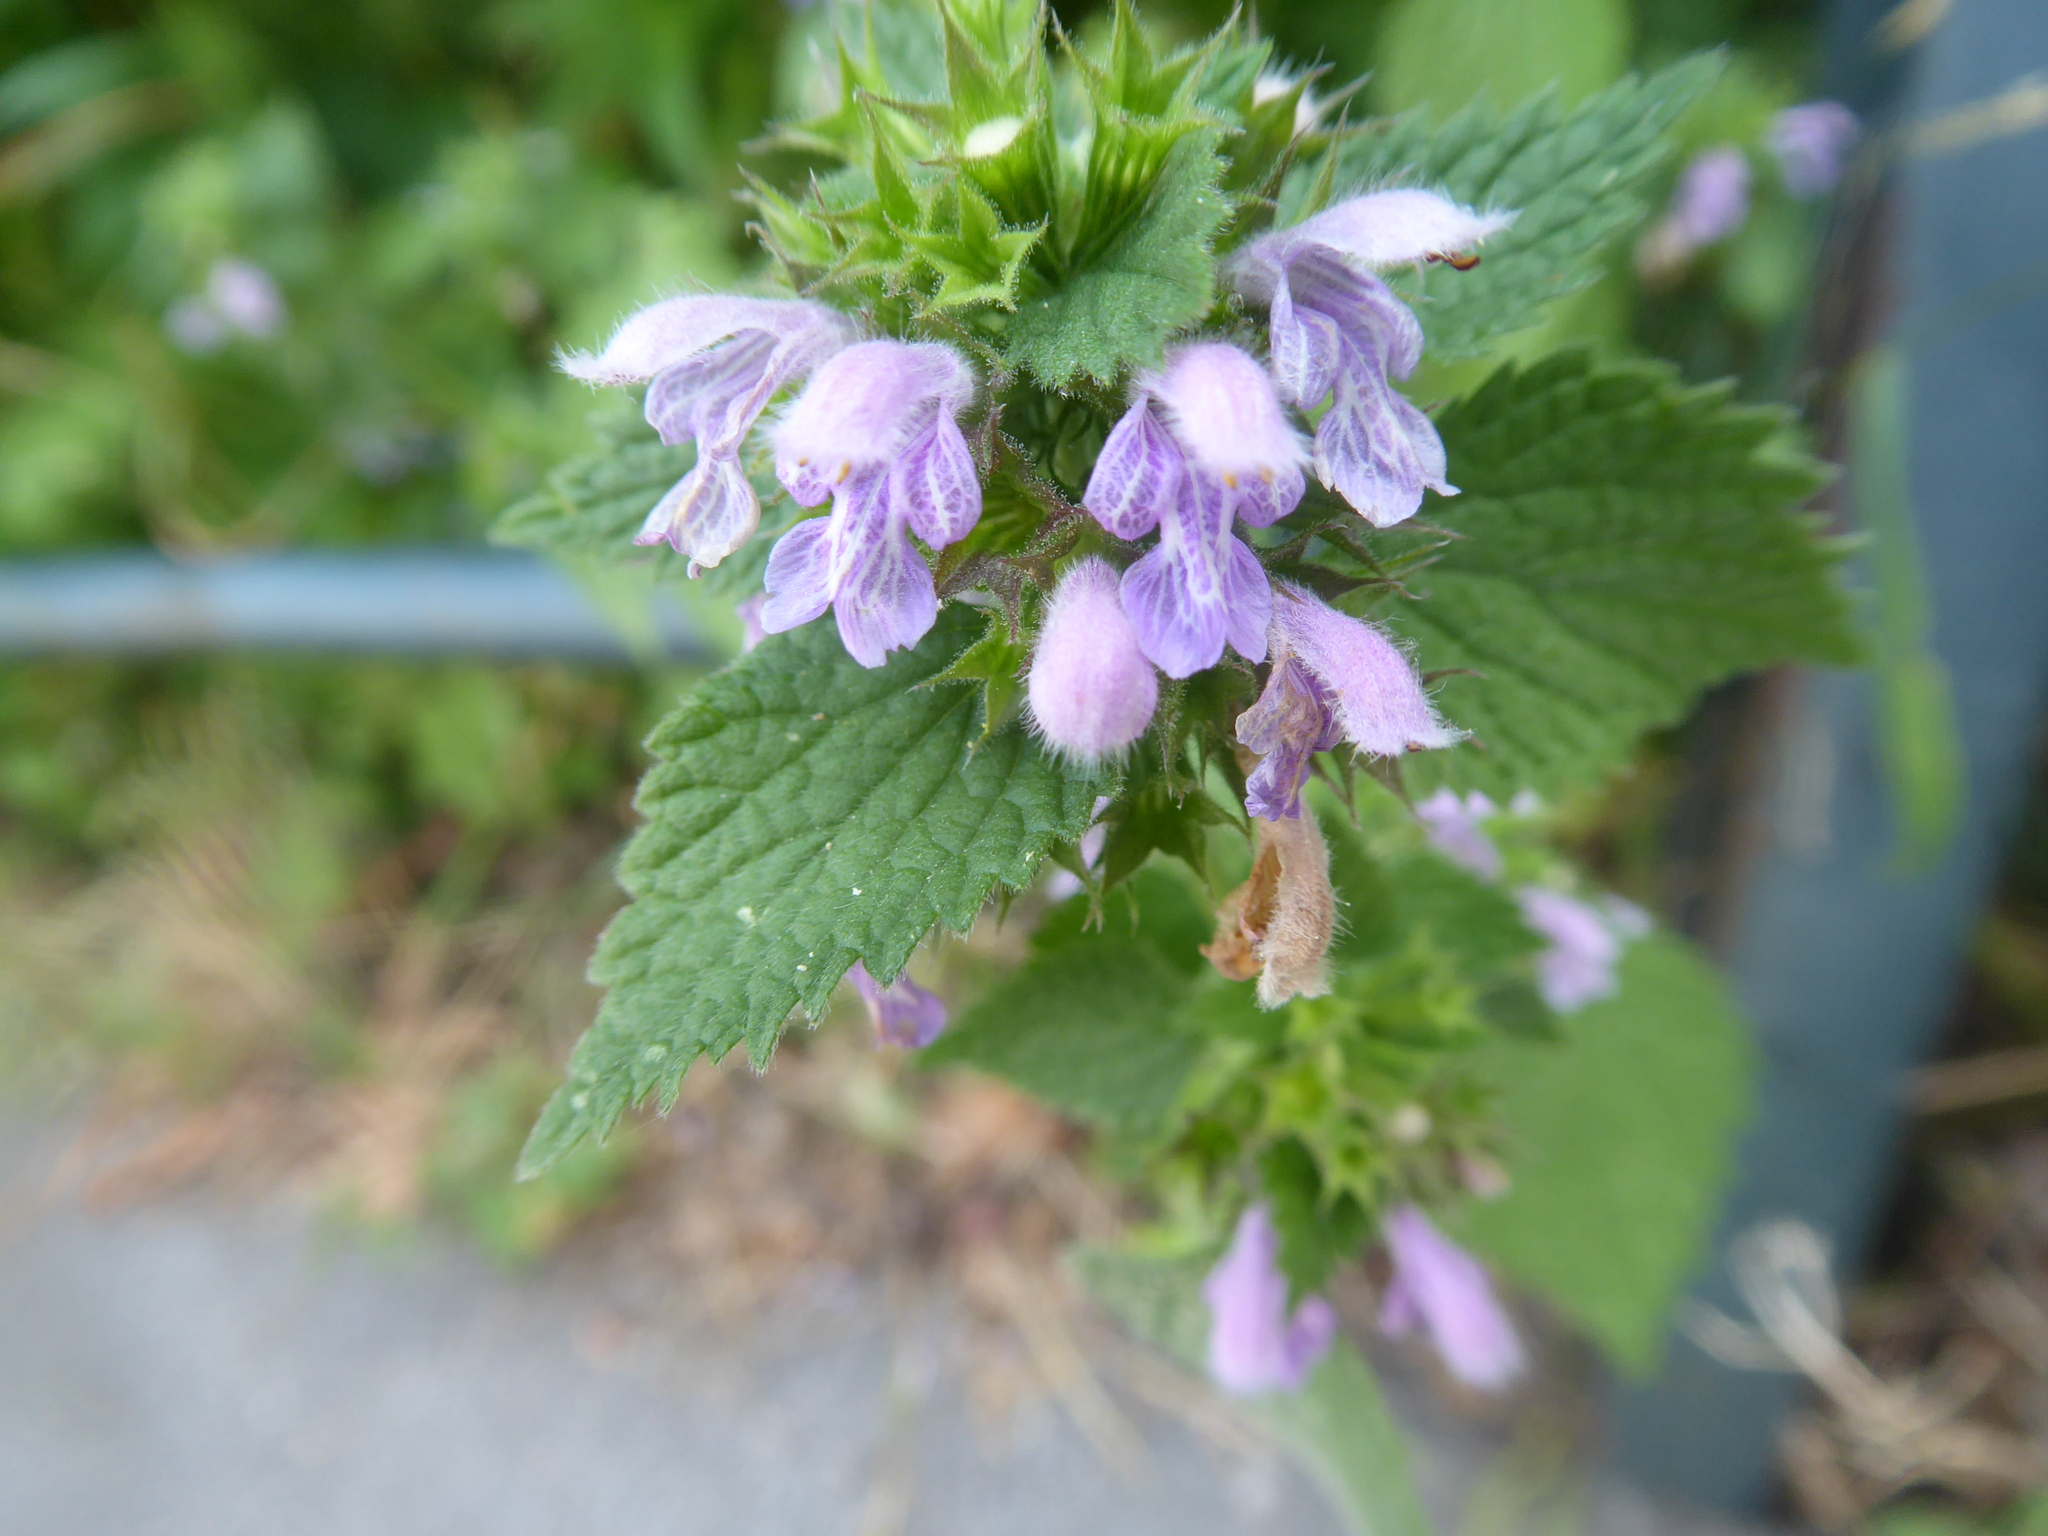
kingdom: Plantae
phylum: Tracheophyta
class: Magnoliopsida
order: Lamiales
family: Lamiaceae
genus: Ballota
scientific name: Ballota nigra
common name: Black horehound
